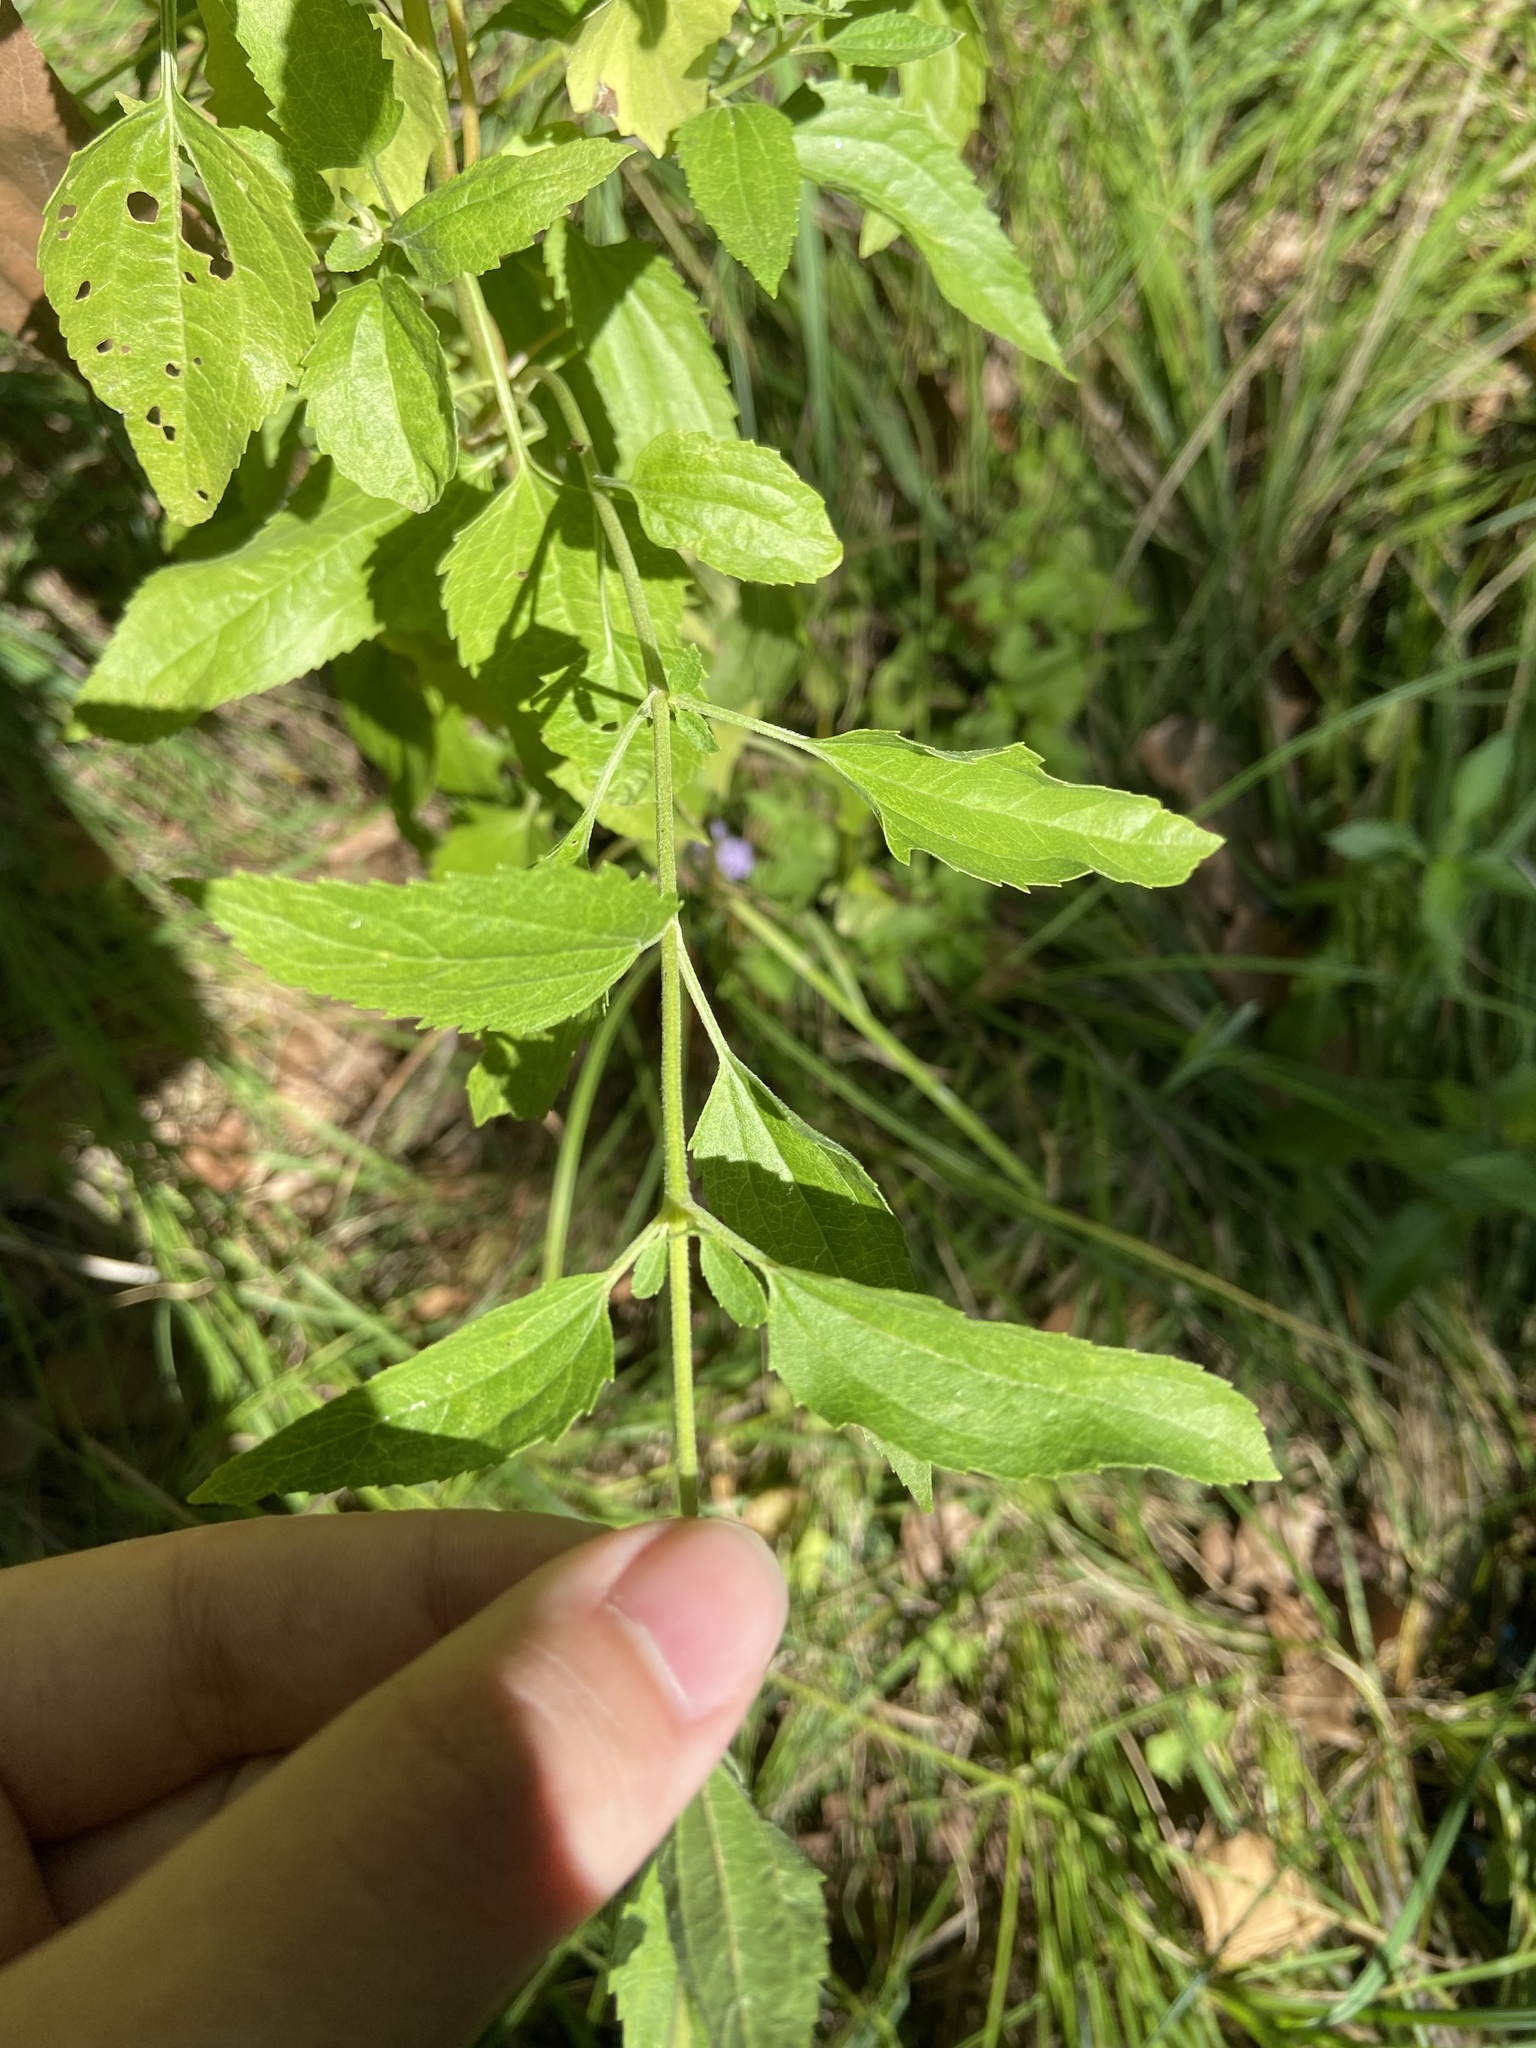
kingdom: Plantae
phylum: Tracheophyta
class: Magnoliopsida
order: Asterales
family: Asteraceae
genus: Eupatorium
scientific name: Eupatorium serotinum
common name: Late boneset
